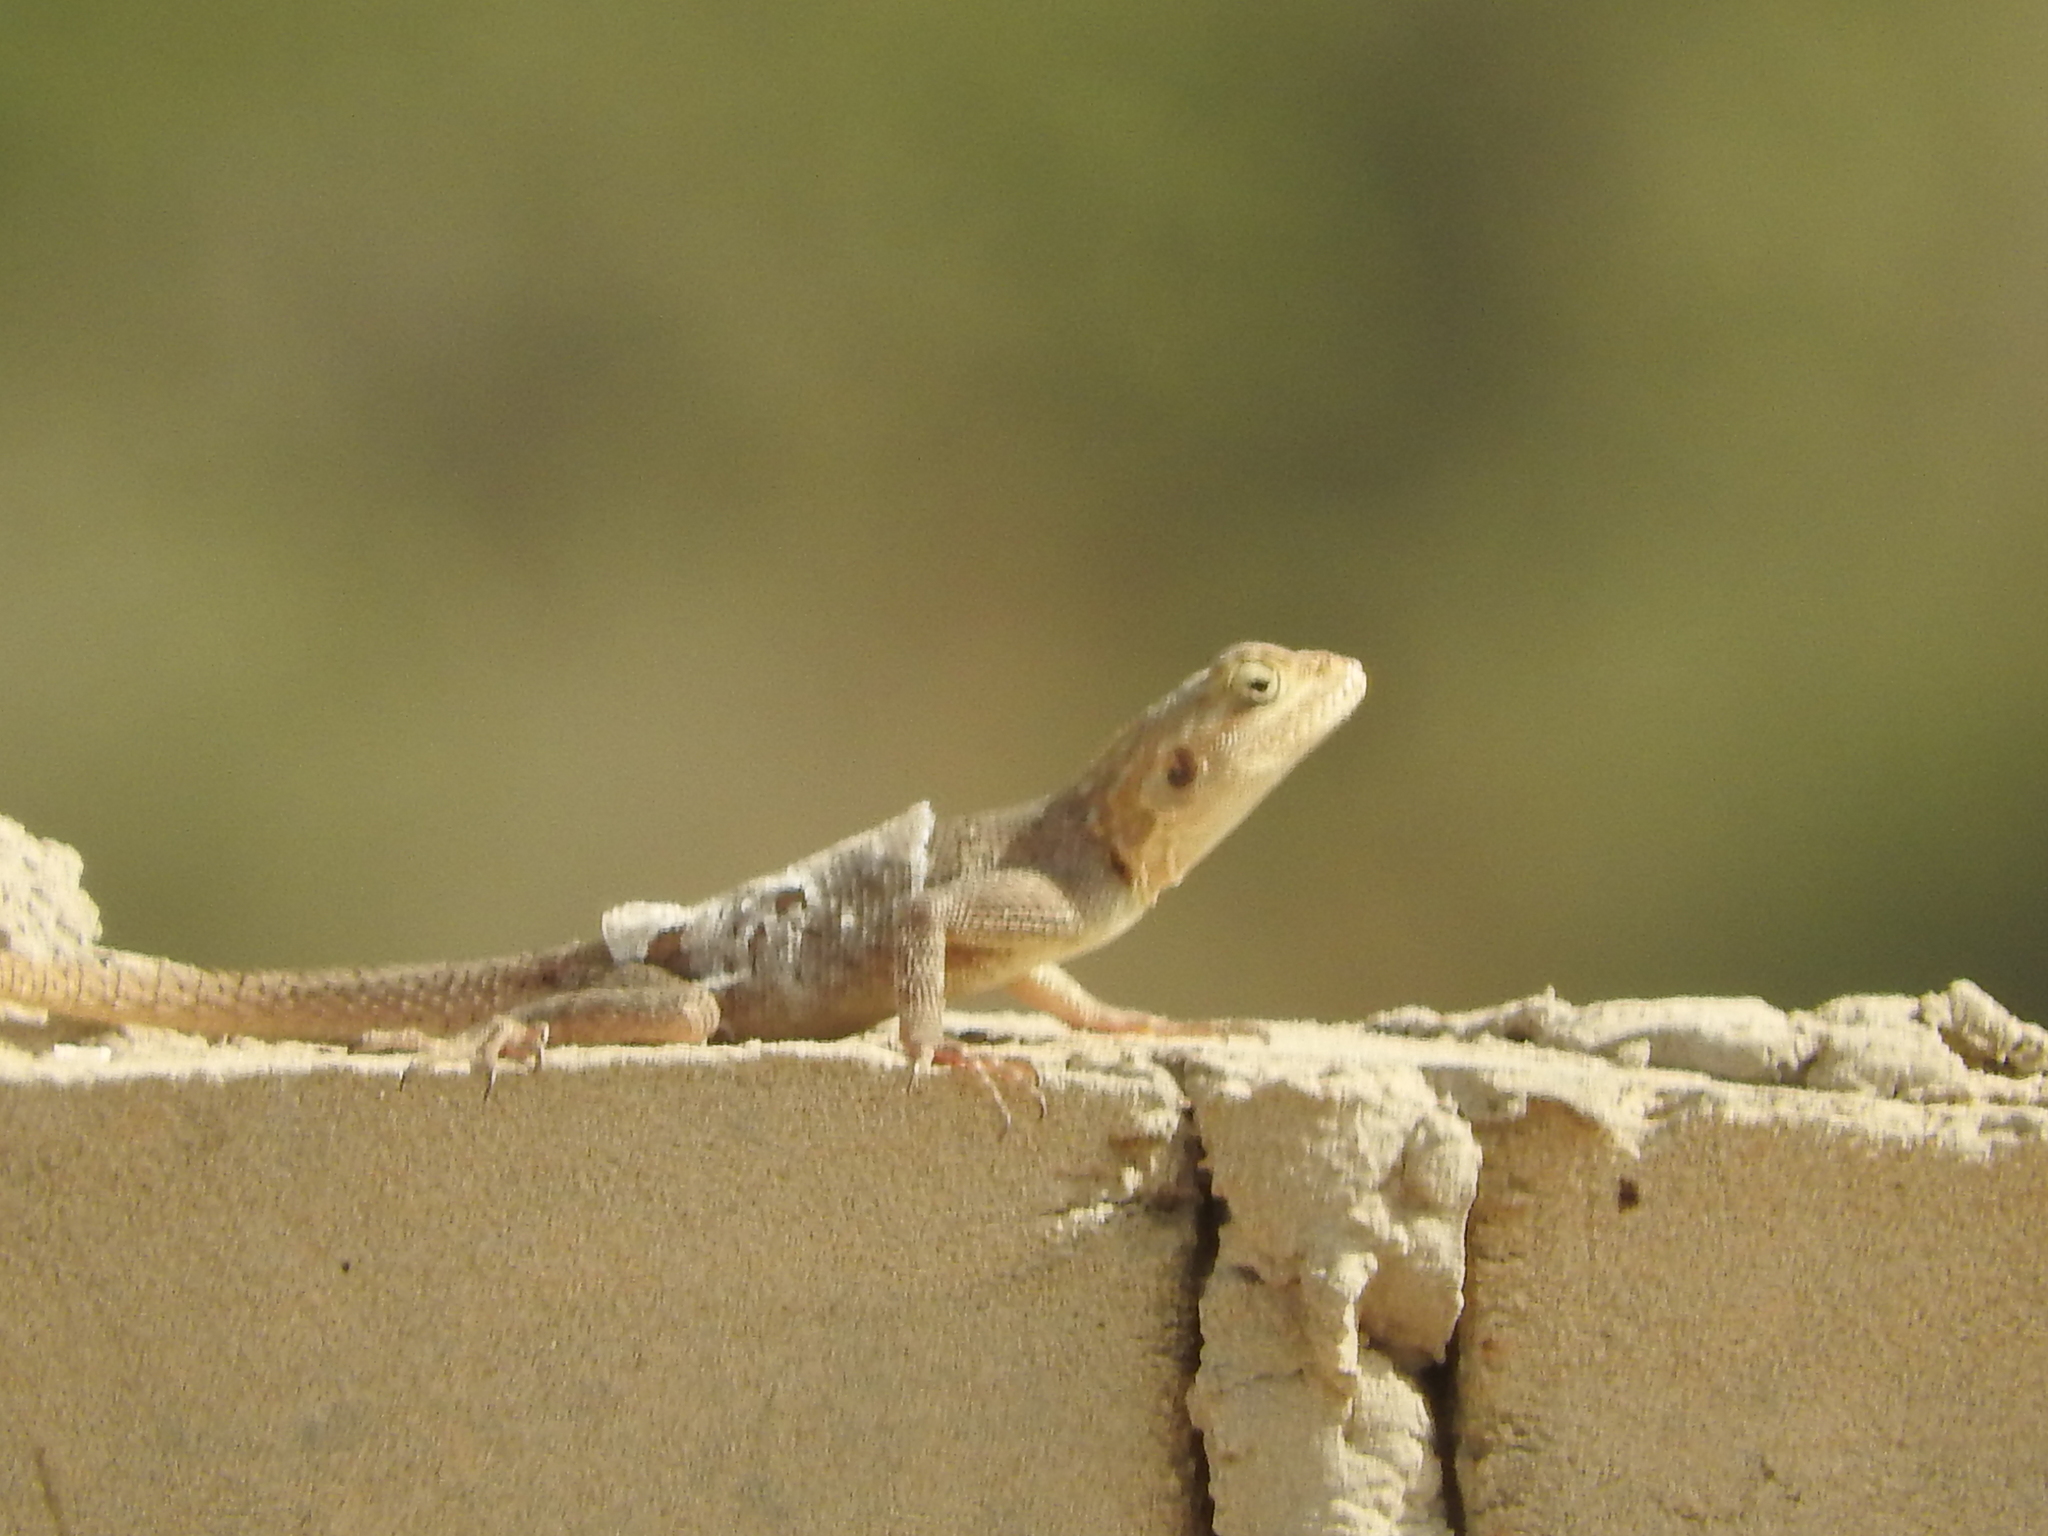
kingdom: Animalia
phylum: Chordata
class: Squamata
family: Agamidae
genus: Agama
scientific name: Agama agama
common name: Common agama
